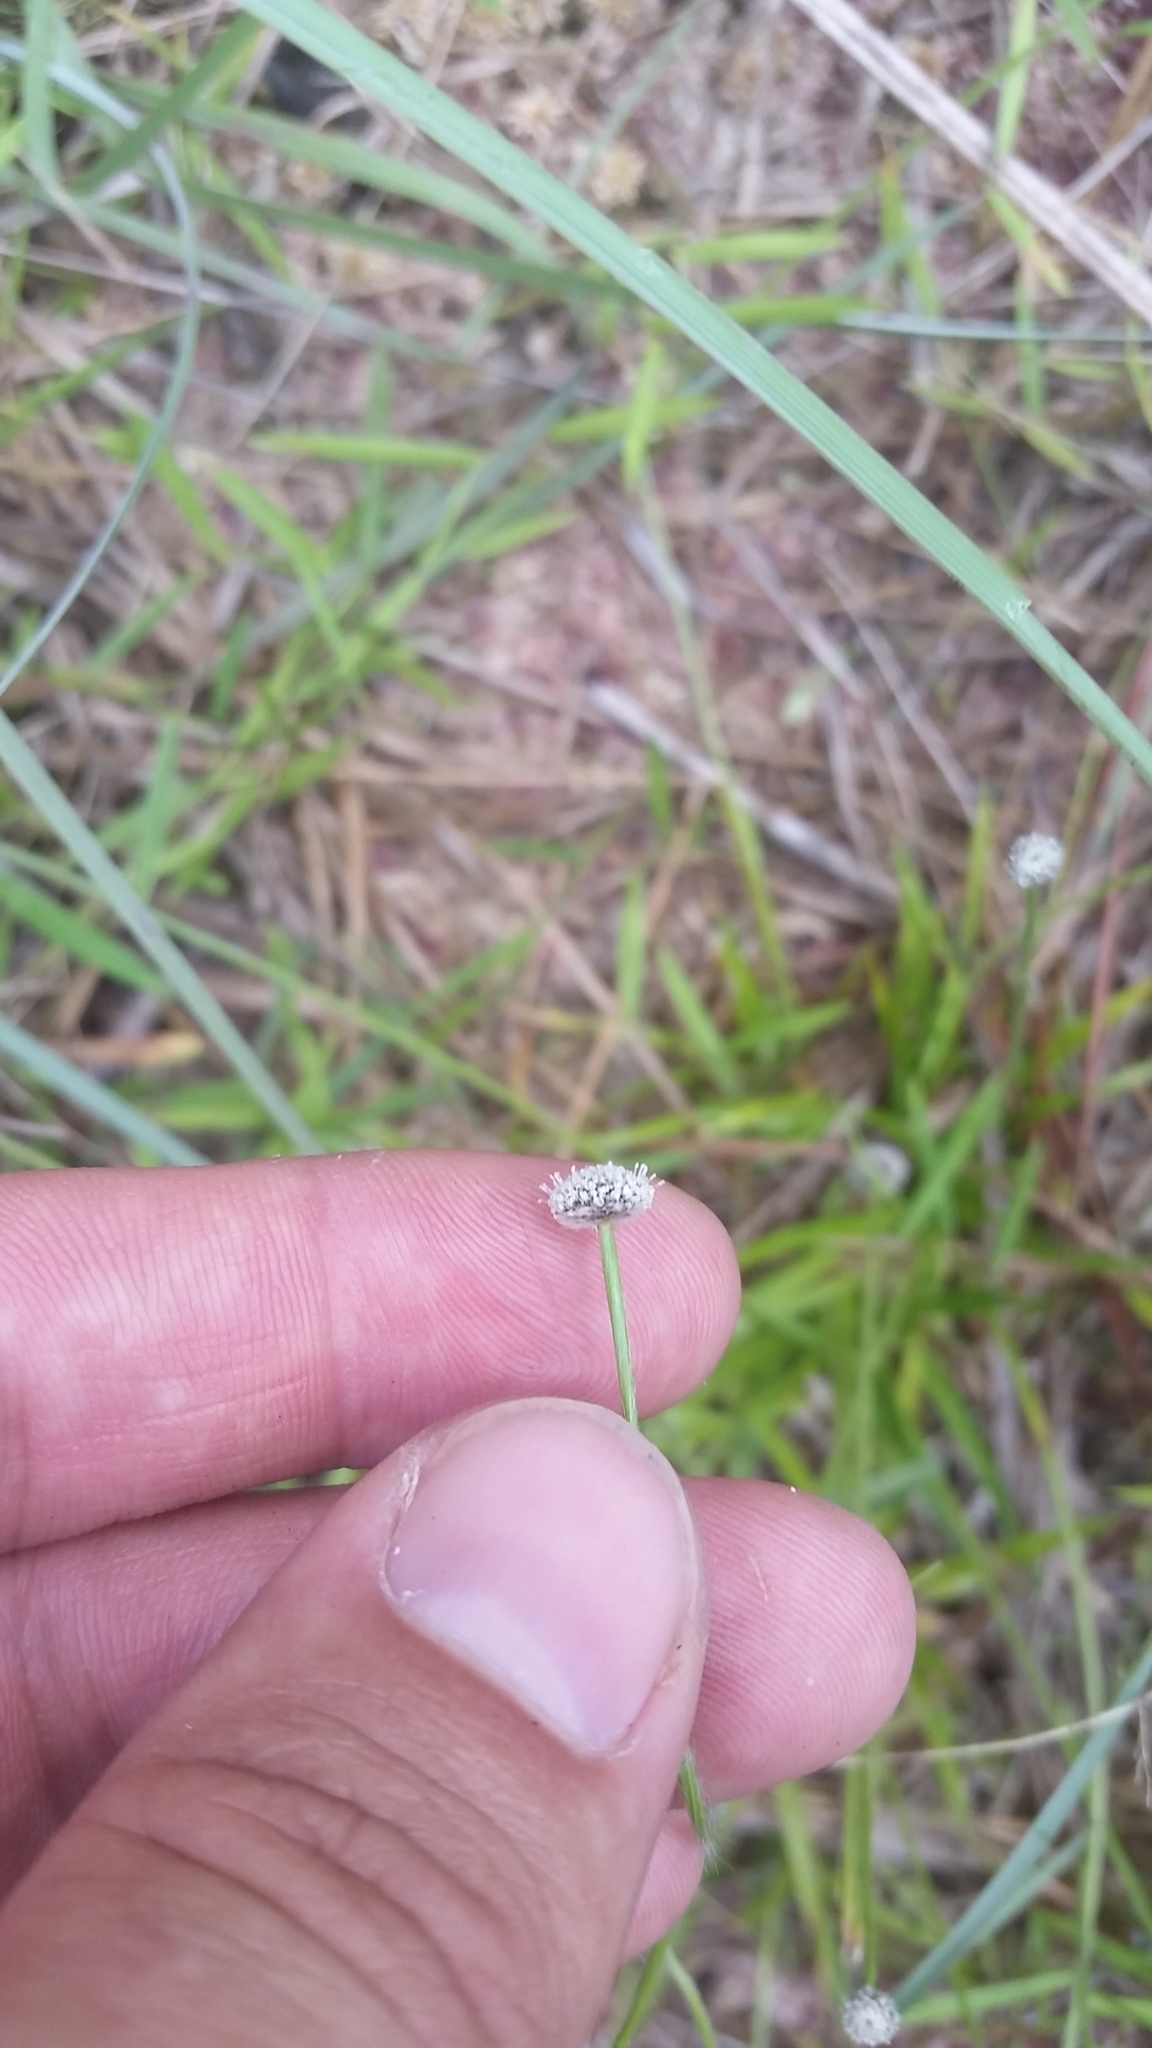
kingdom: Plantae
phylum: Tracheophyta
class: Liliopsida
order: Poales
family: Eriocaulaceae
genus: Paepalanthus
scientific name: Paepalanthus anceps
